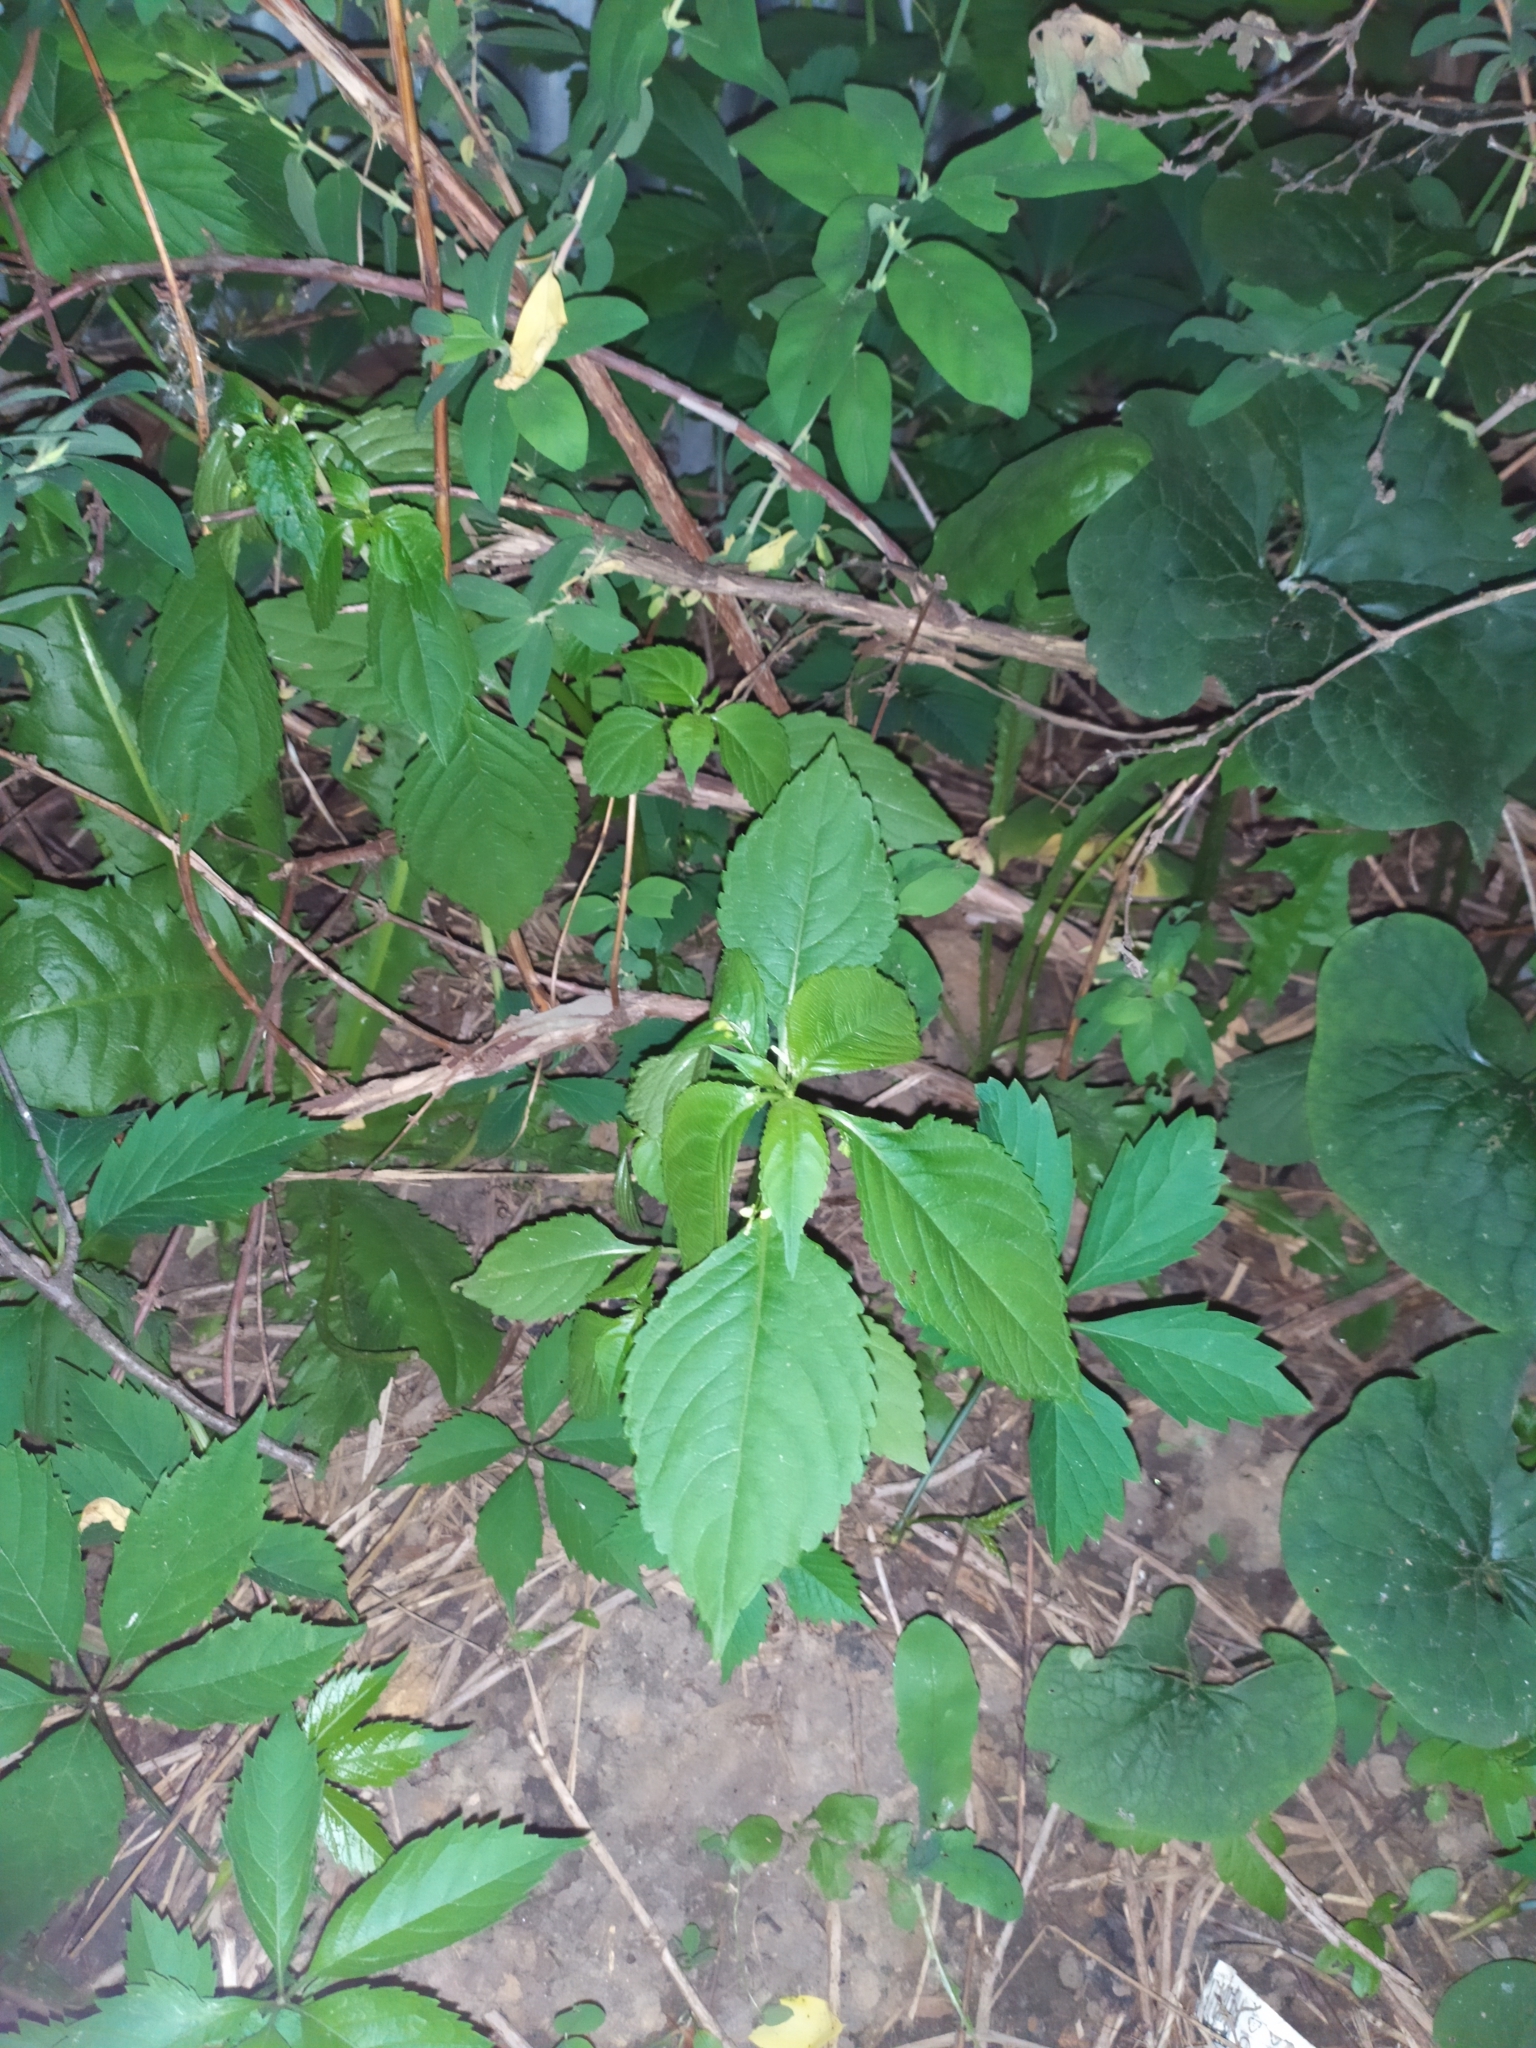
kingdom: Plantae
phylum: Tracheophyta
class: Magnoliopsida
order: Ericales
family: Balsaminaceae
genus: Impatiens
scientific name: Impatiens parviflora
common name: Small balsam
